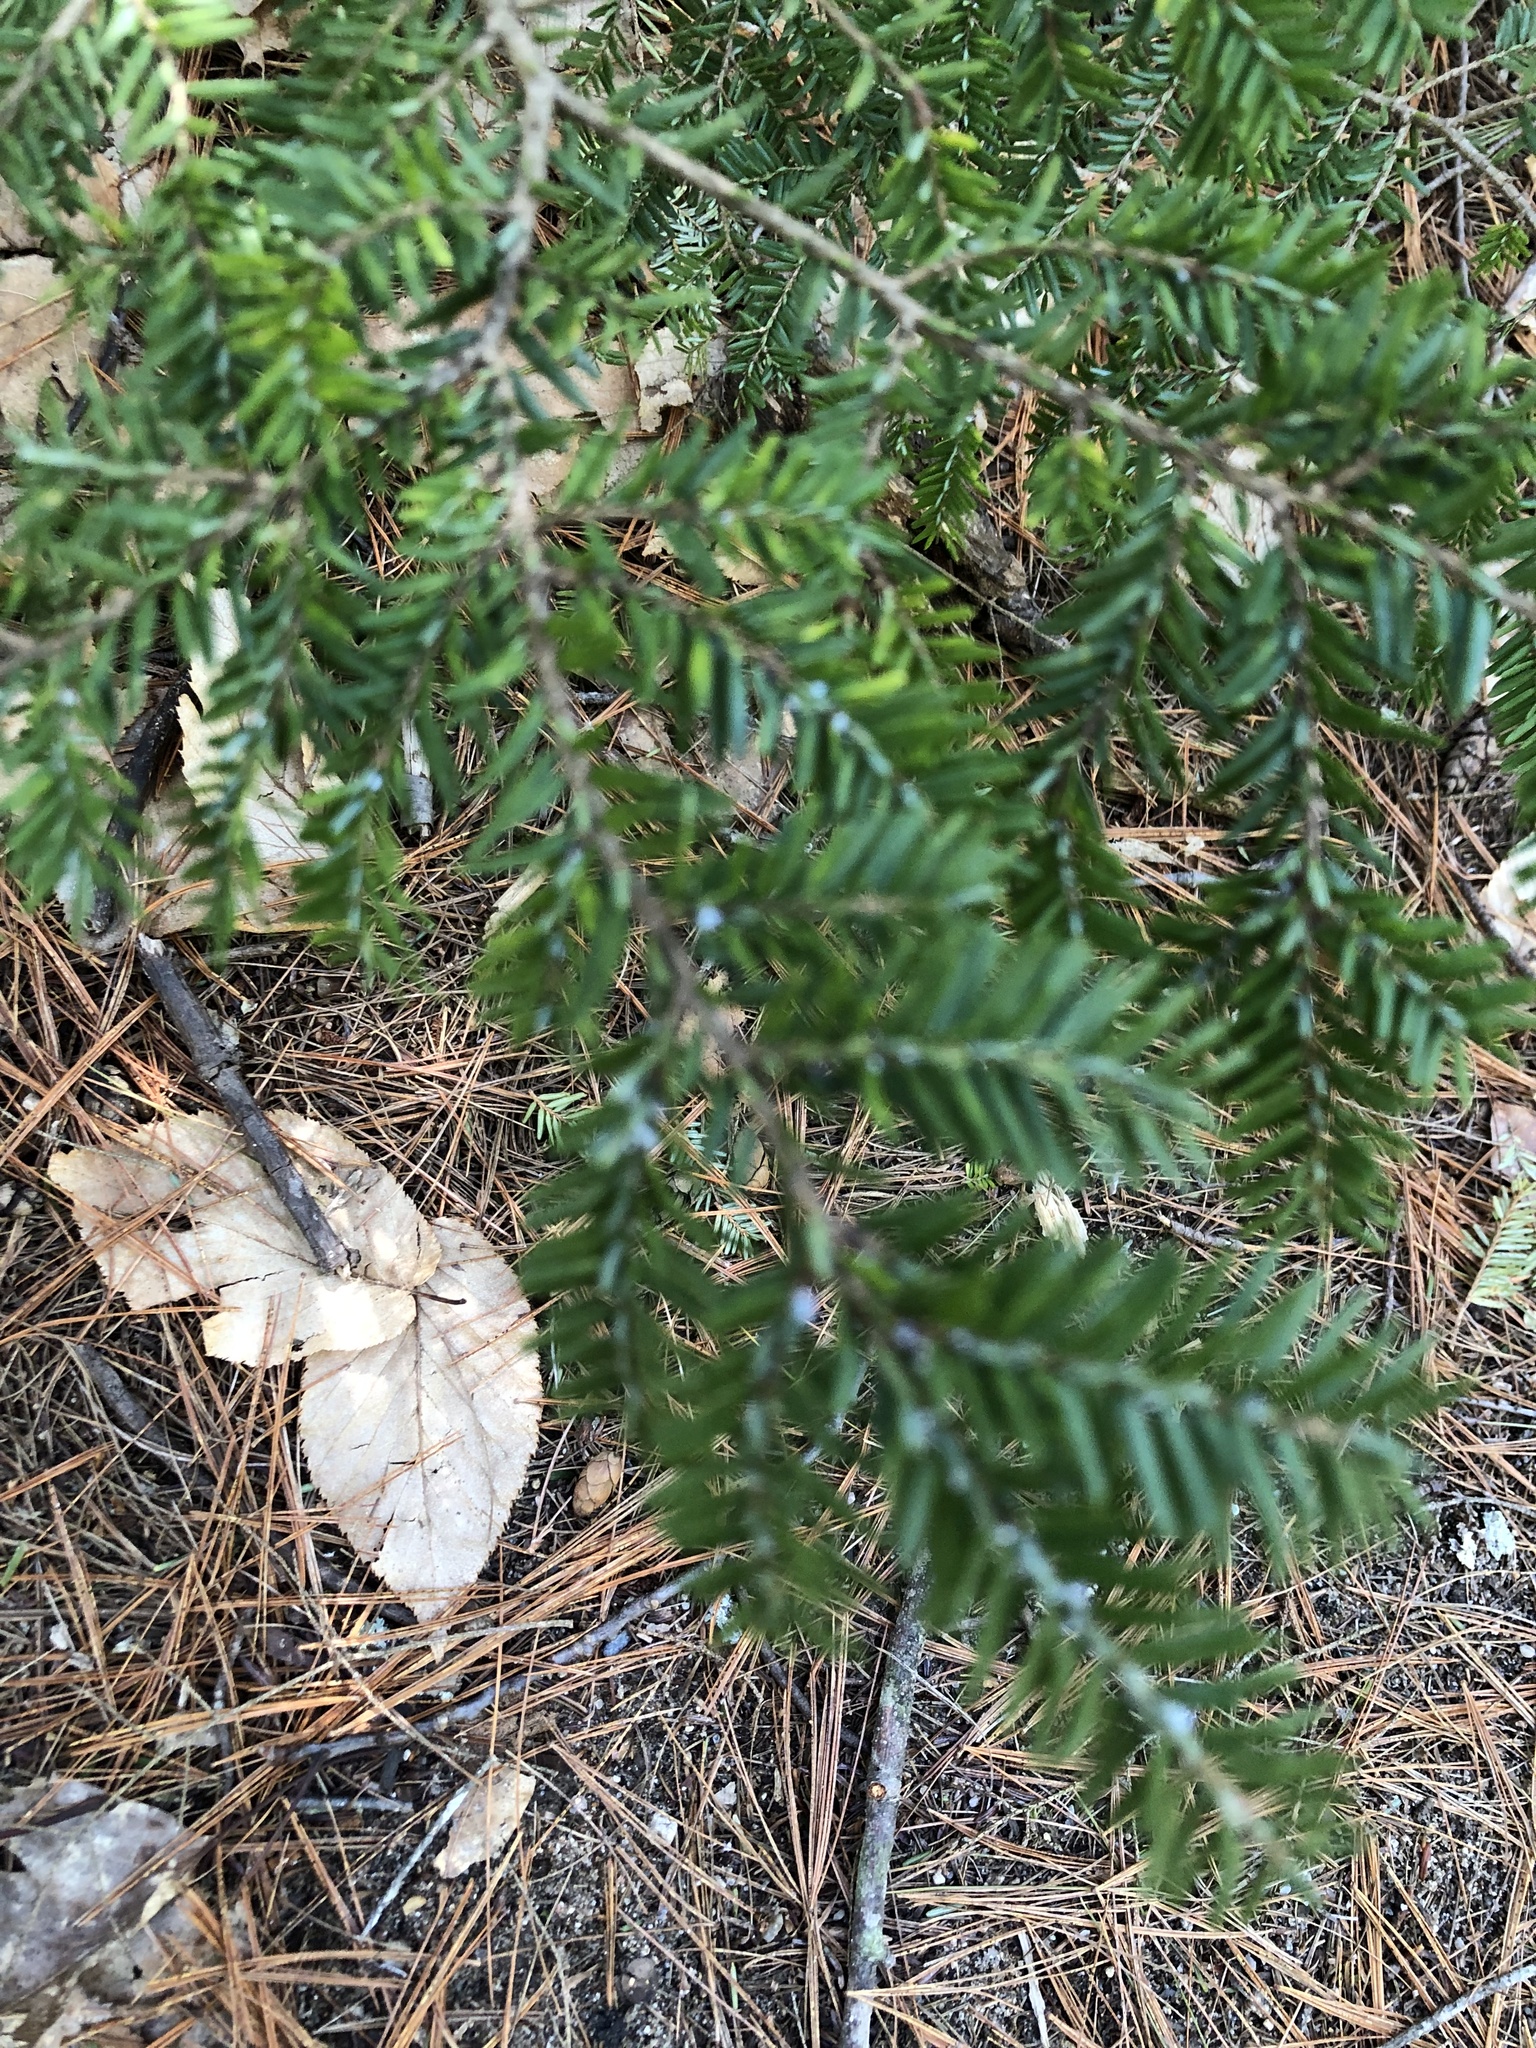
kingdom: Plantae
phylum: Tracheophyta
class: Pinopsida
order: Pinales
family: Pinaceae
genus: Tsuga
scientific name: Tsuga canadensis
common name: Eastern hemlock
